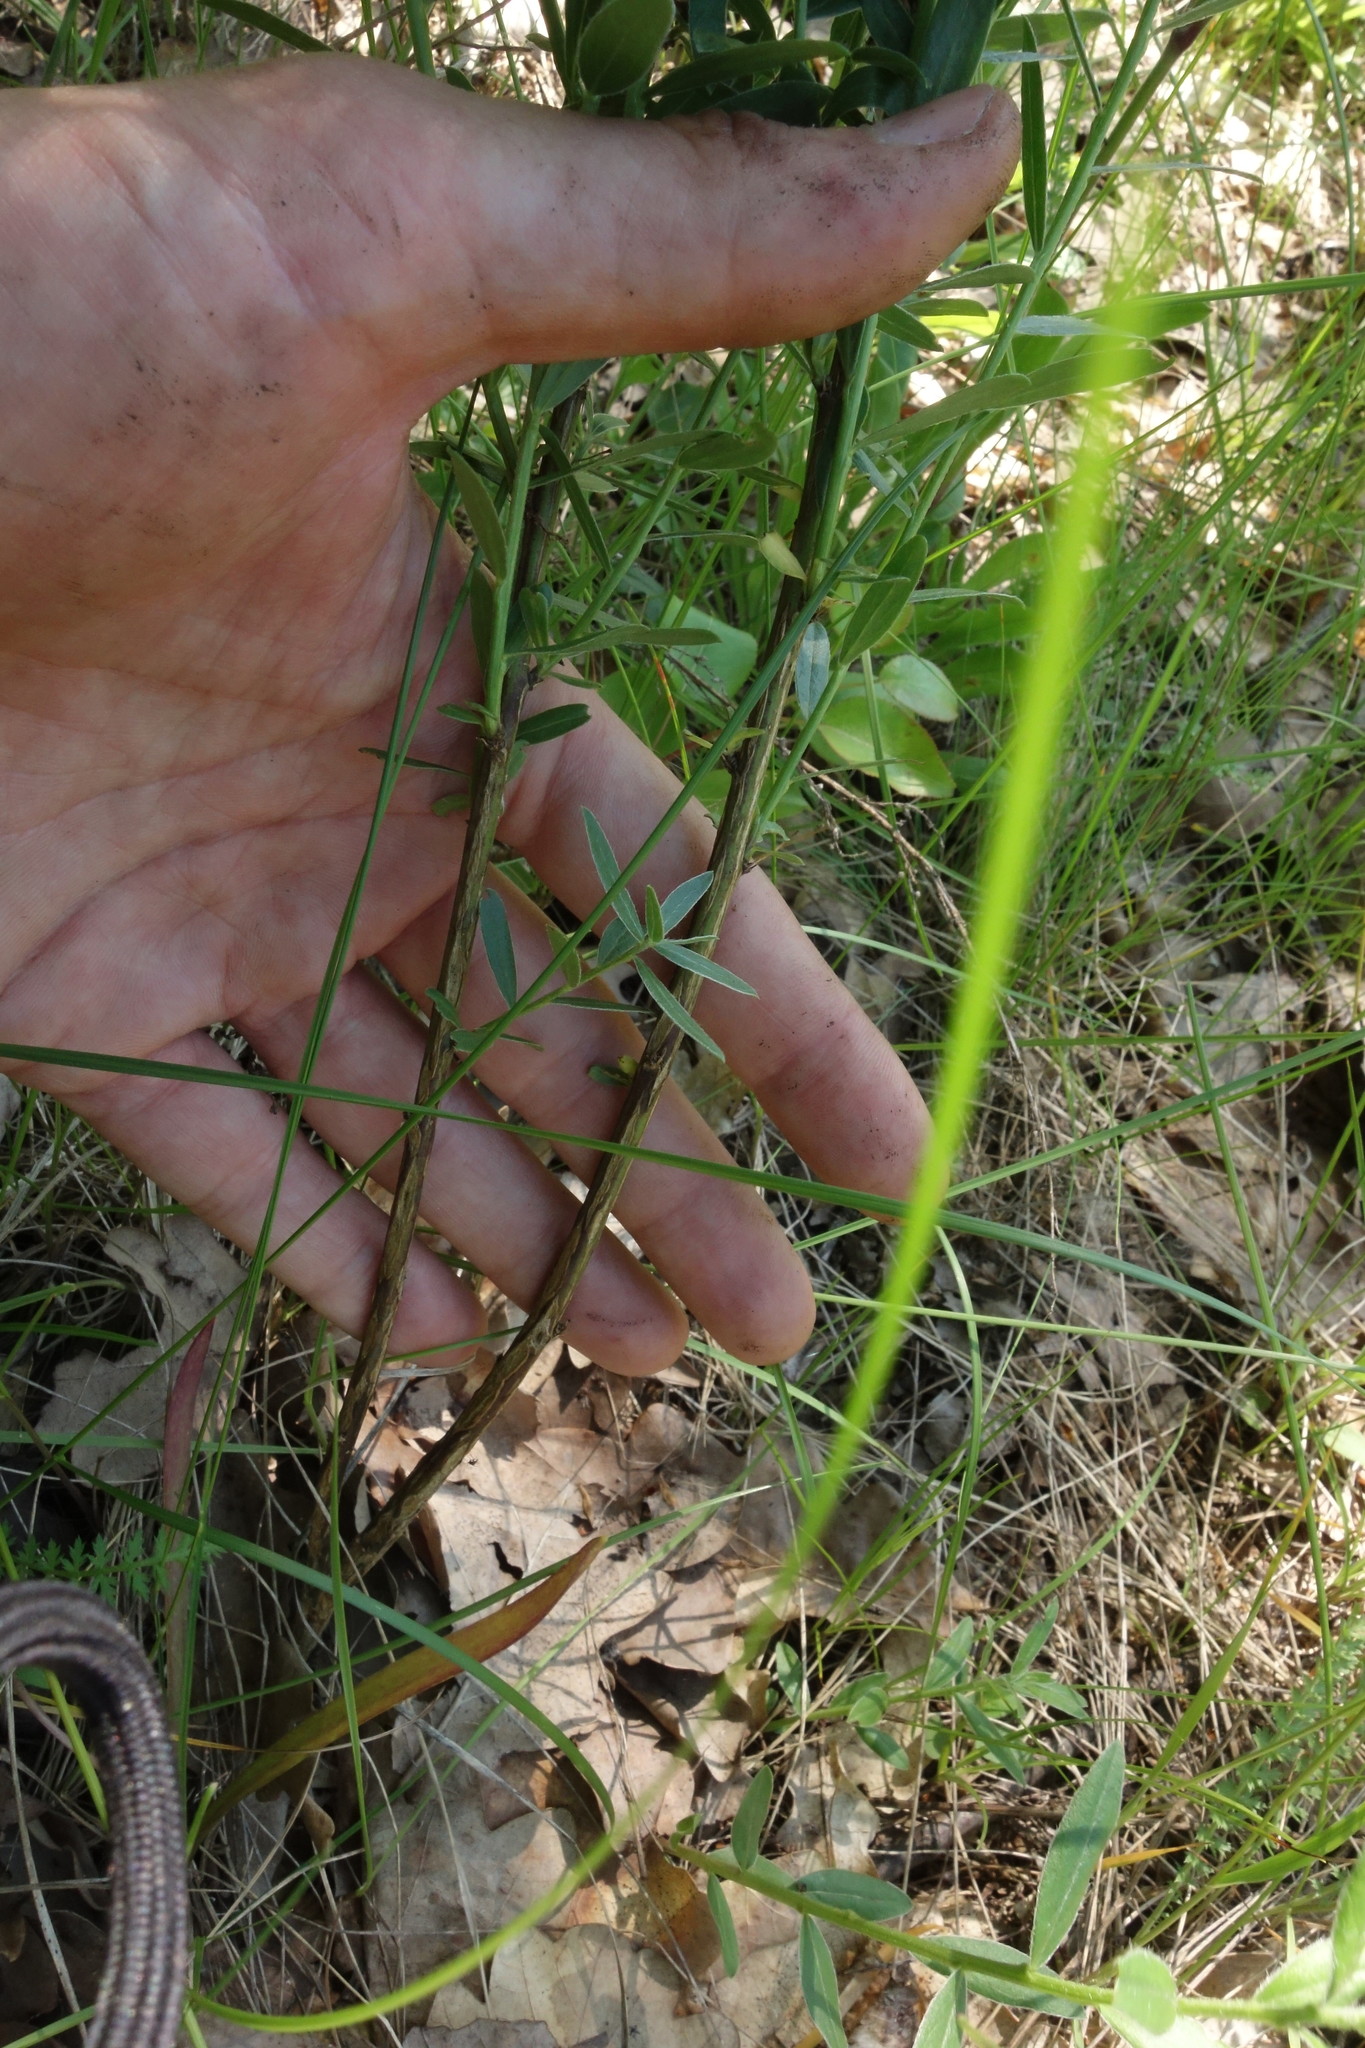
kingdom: Plantae
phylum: Tracheophyta
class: Magnoliopsida
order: Fabales
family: Fabaceae
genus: Genista
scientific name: Genista tinctoria
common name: Dyer's greenweed
